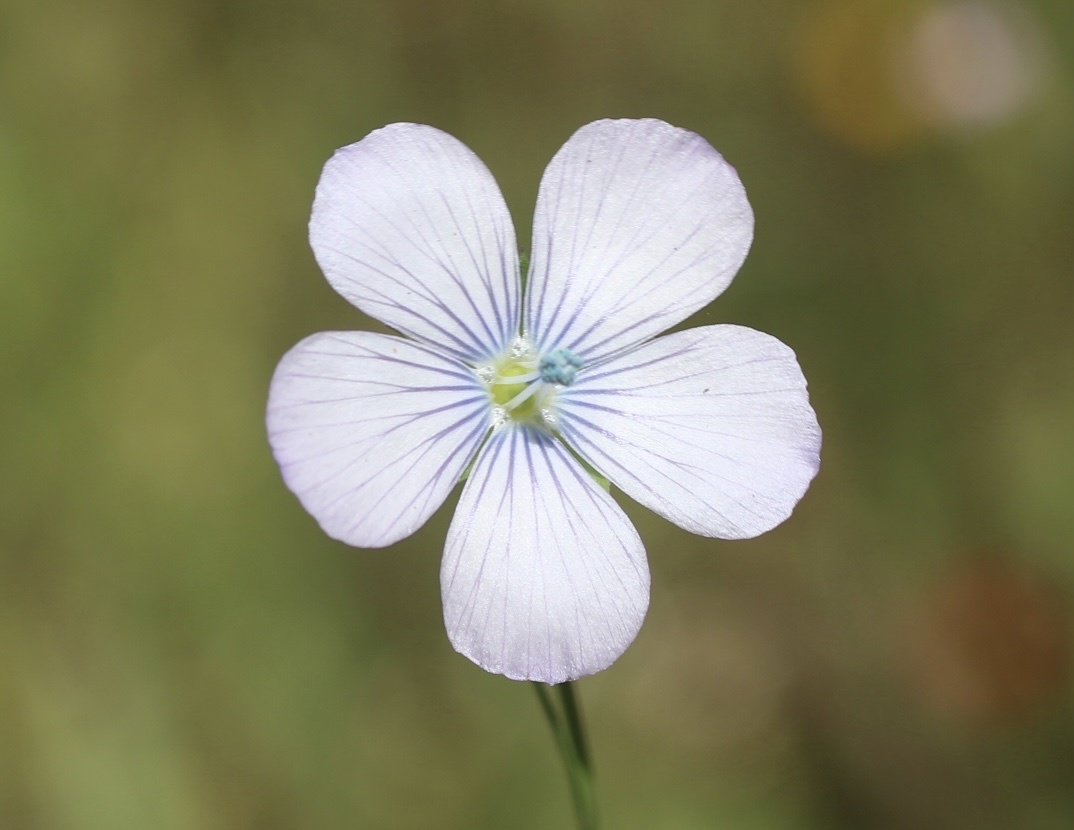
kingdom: Plantae
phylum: Tracheophyta
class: Magnoliopsida
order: Malpighiales
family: Linaceae
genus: Linum
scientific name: Linum bienne
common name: Pale flax
